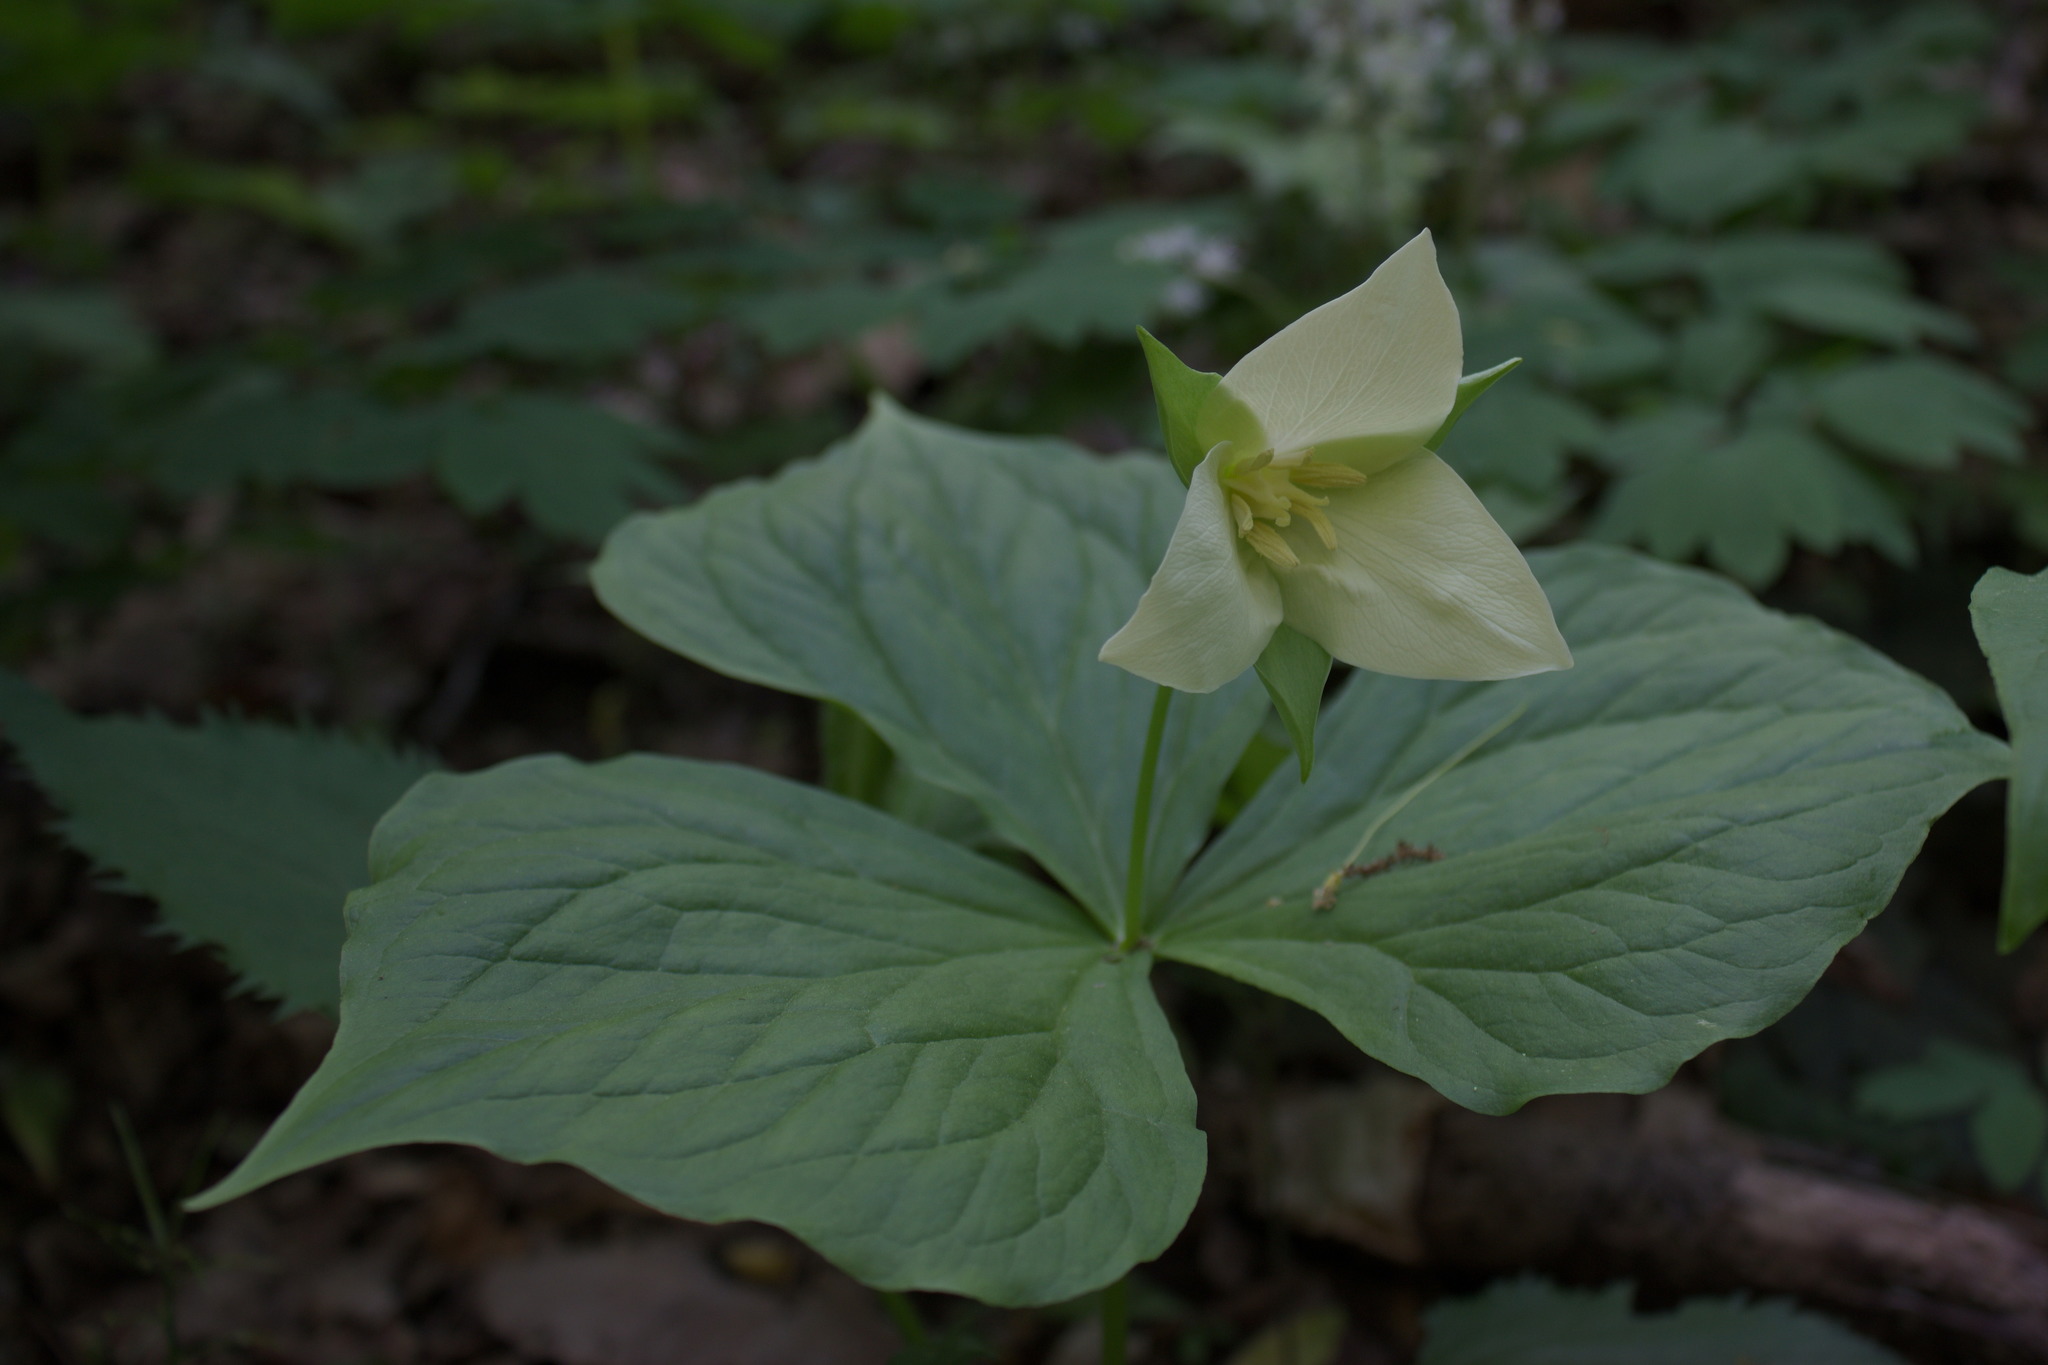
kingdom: Plantae
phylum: Tracheophyta
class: Liliopsida
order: Liliales
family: Melanthiaceae
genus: Trillium
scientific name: Trillium flexipes
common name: Drooping trillium
